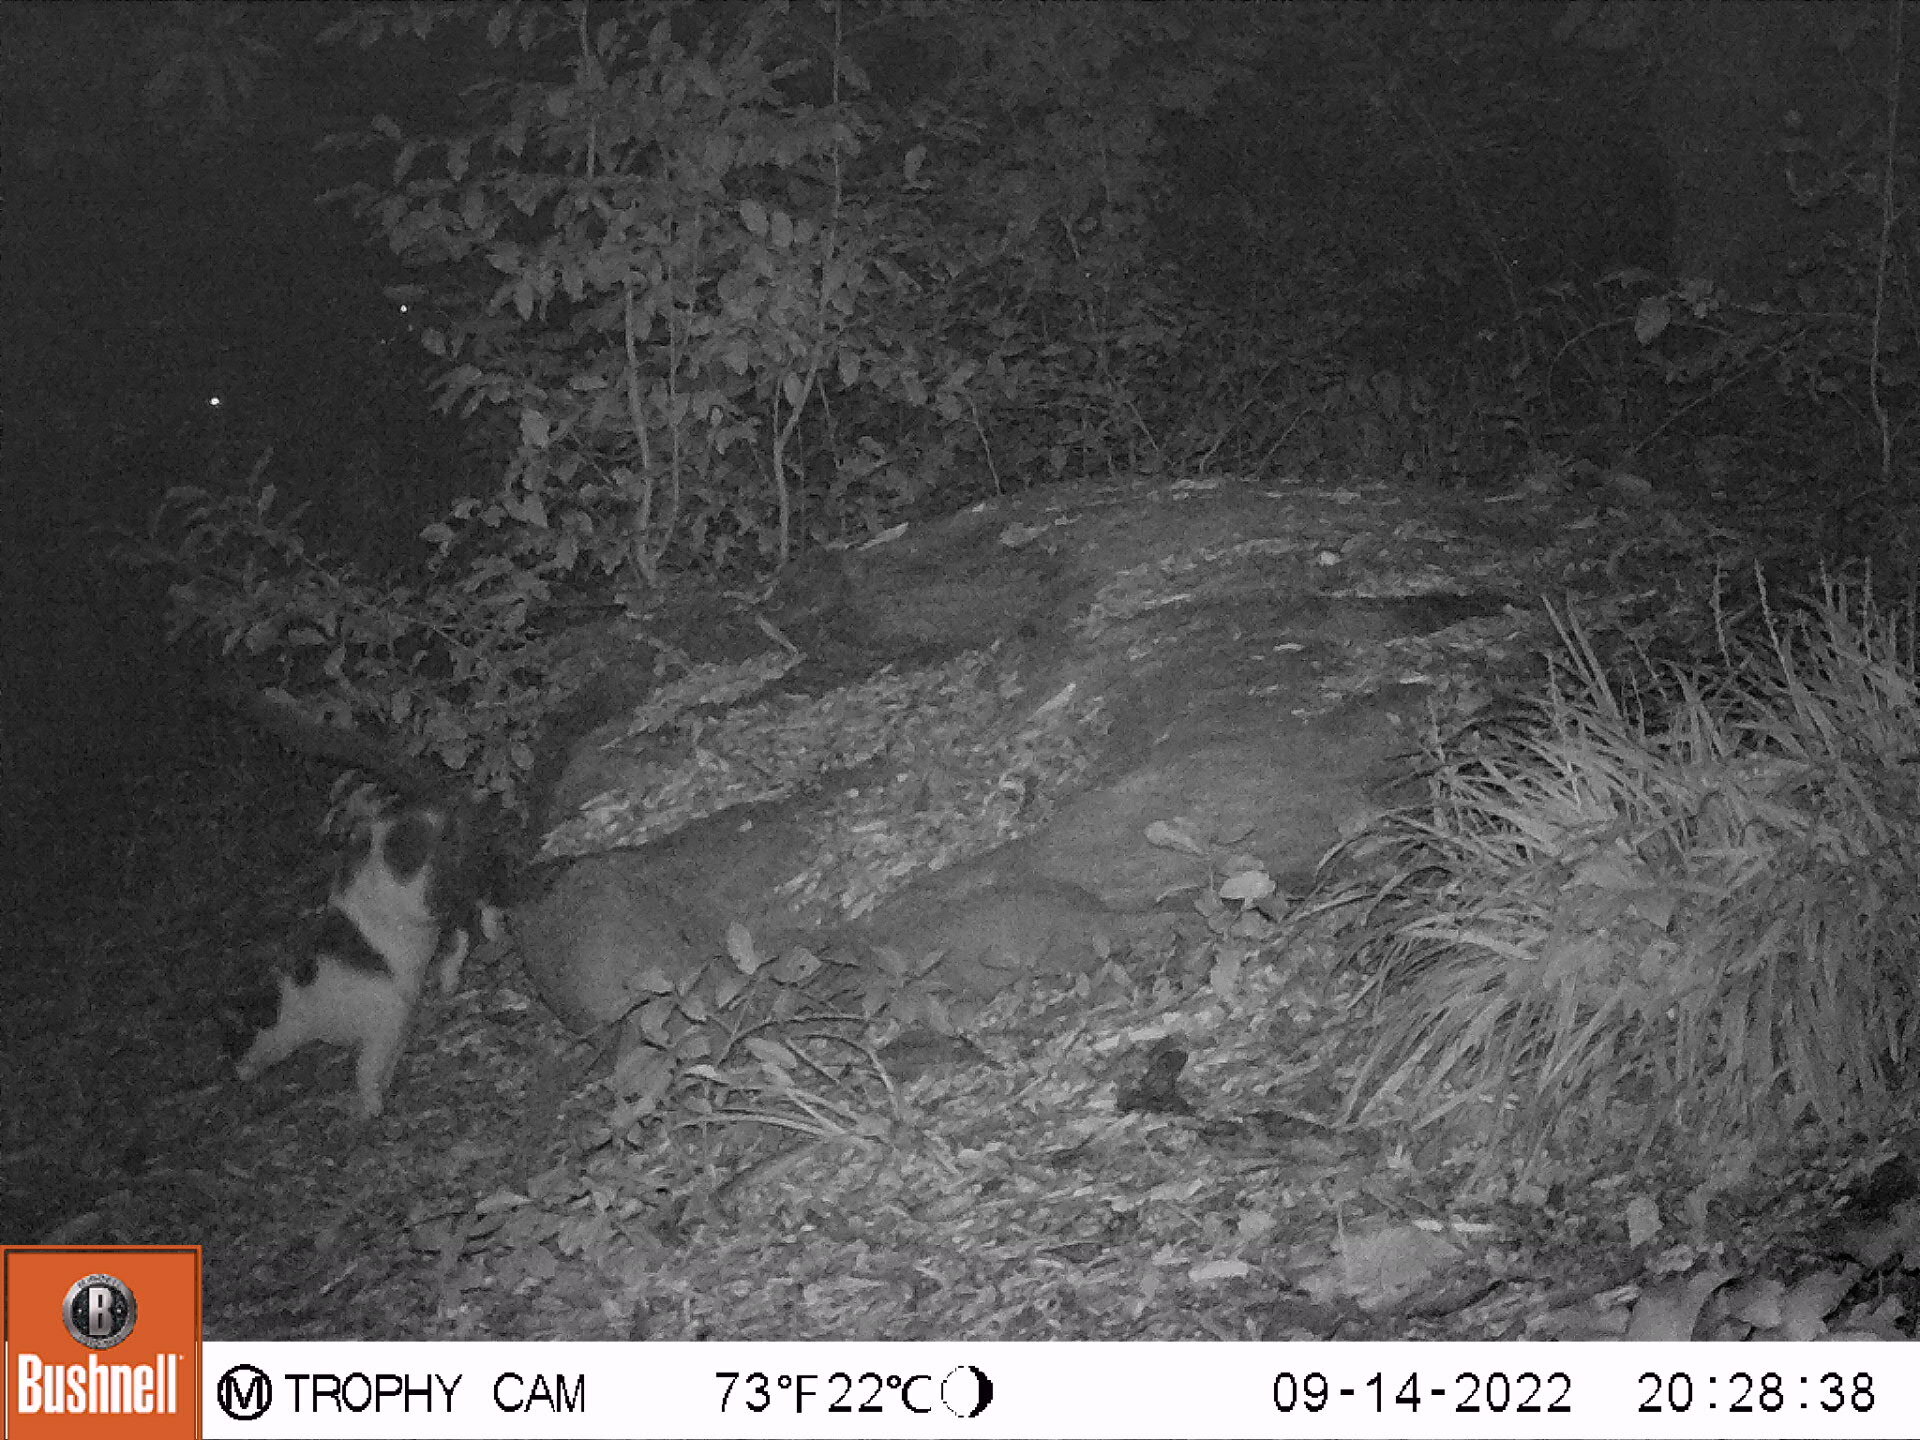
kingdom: Animalia
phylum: Chordata
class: Mammalia
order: Carnivora
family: Felidae
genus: Felis
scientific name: Felis catus
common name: Domestic cat
